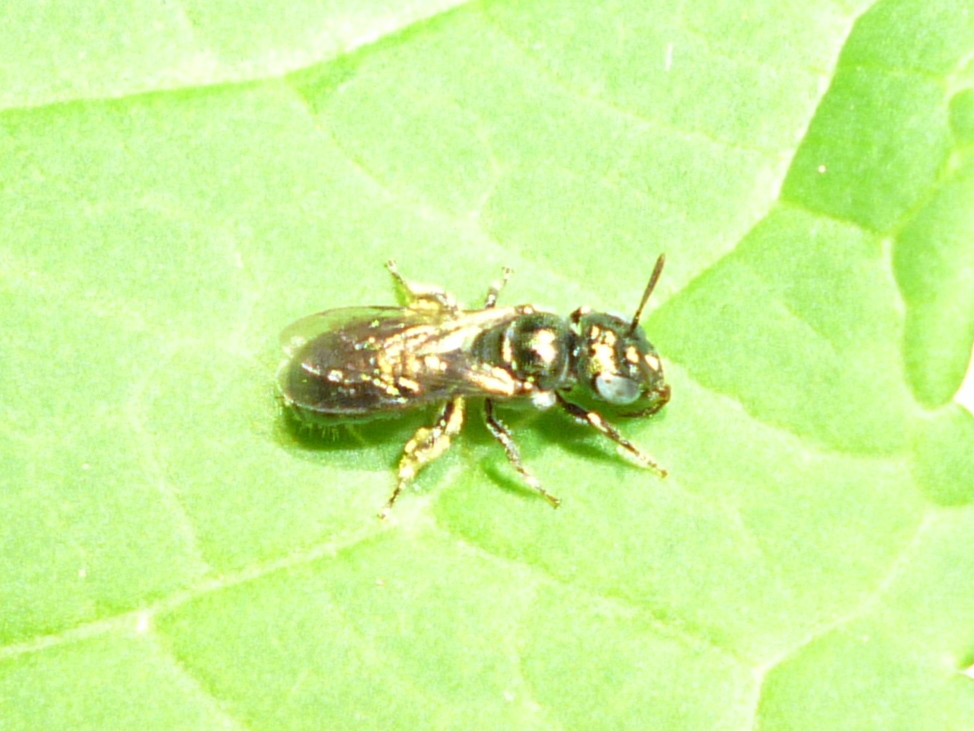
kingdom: Animalia
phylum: Arthropoda
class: Insecta
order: Hymenoptera
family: Apidae
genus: Ceratina
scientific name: Ceratina strenua
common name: Nimble carpenter bee
